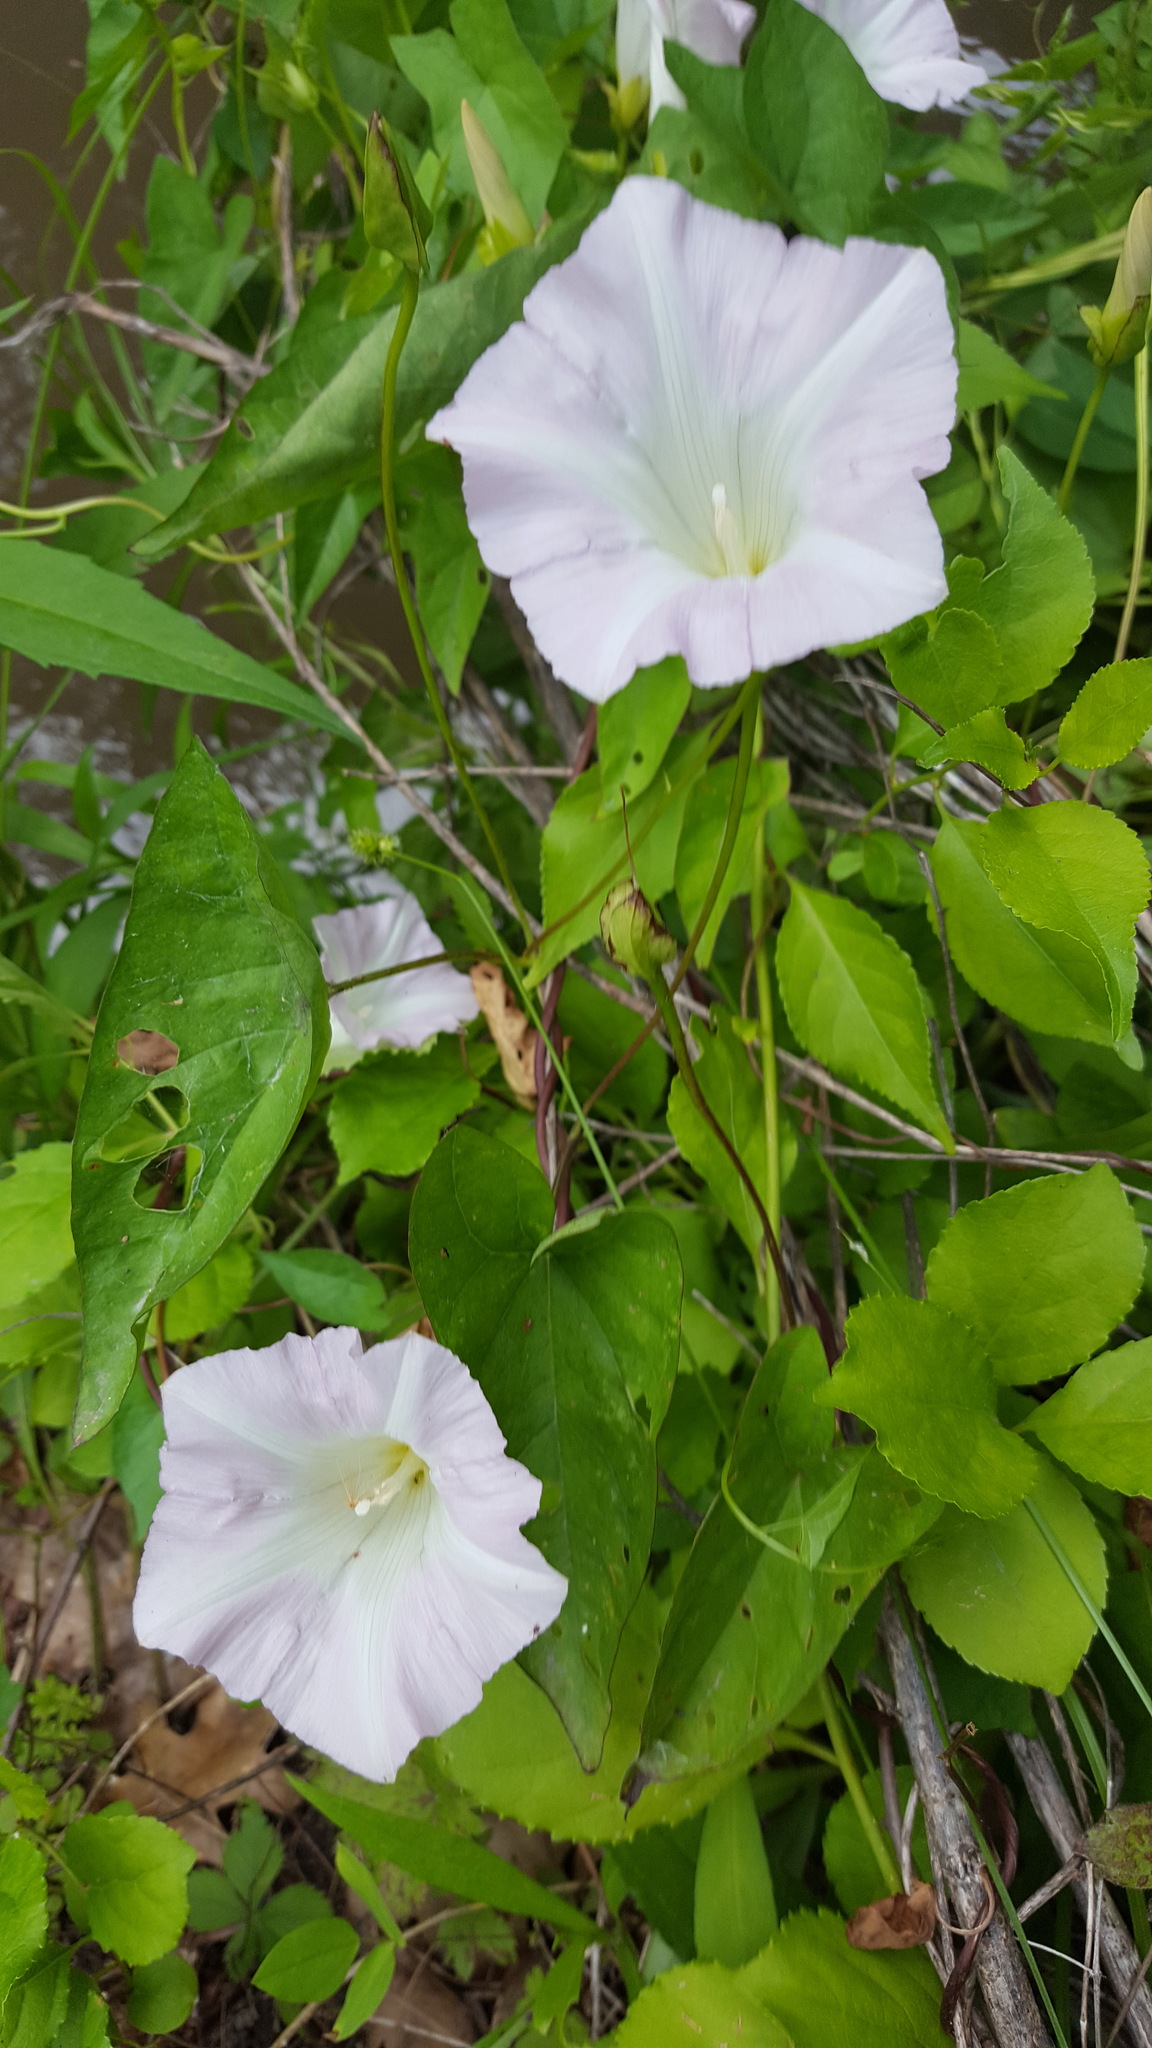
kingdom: Plantae
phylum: Tracheophyta
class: Magnoliopsida
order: Solanales
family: Convolvulaceae
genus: Calystegia
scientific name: Calystegia sepium
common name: Hedge bindweed
